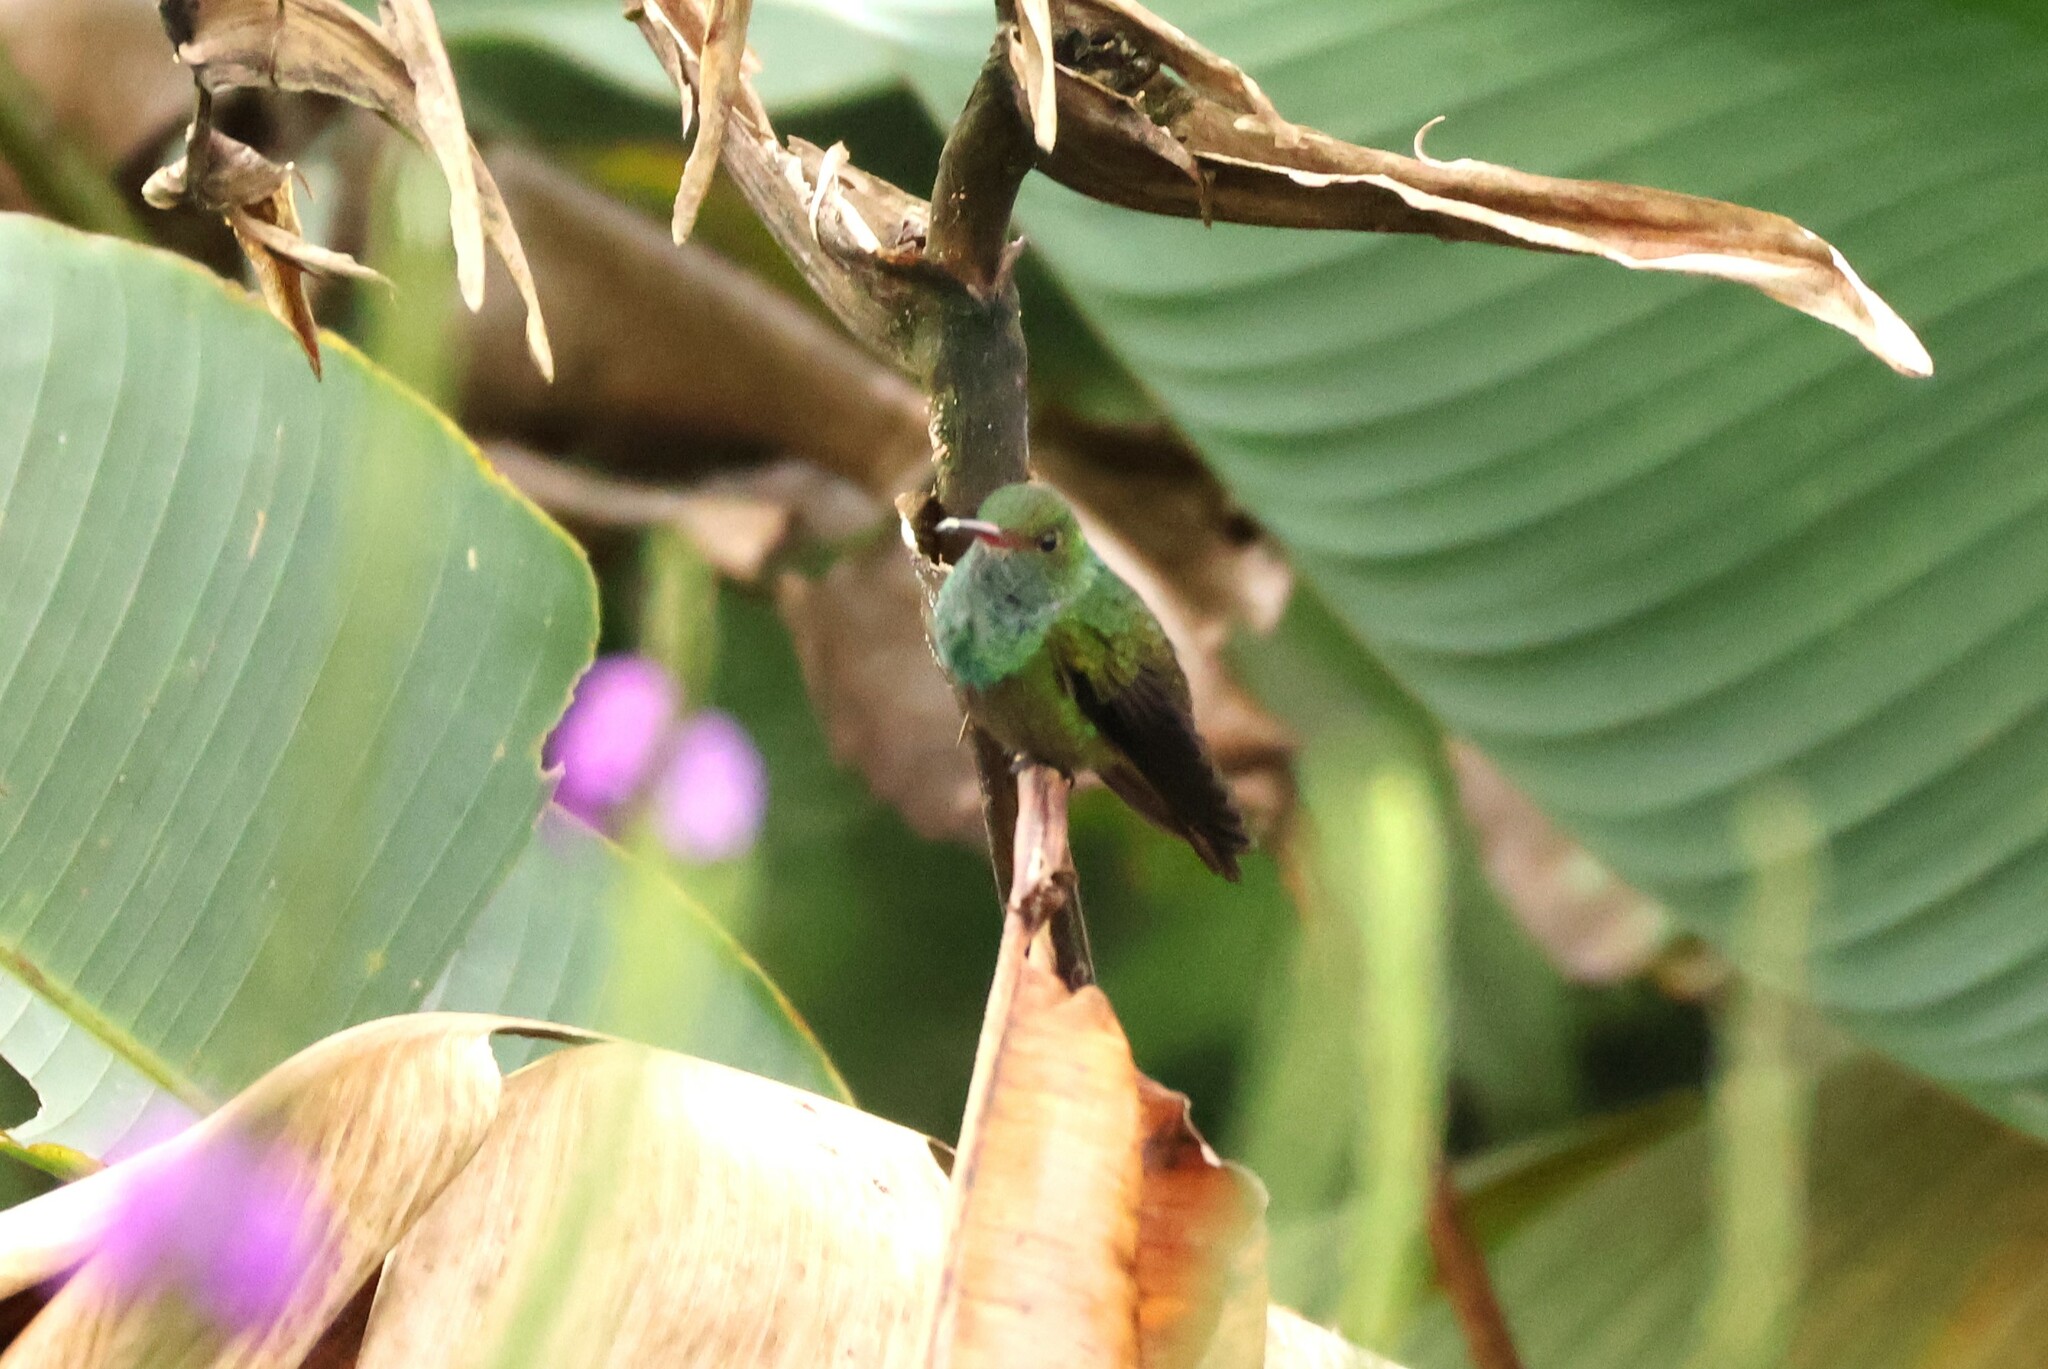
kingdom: Animalia
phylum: Chordata
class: Aves
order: Apodiformes
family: Trochilidae
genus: Amazilia
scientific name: Amazilia tzacatl
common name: Rufous-tailed hummingbird
